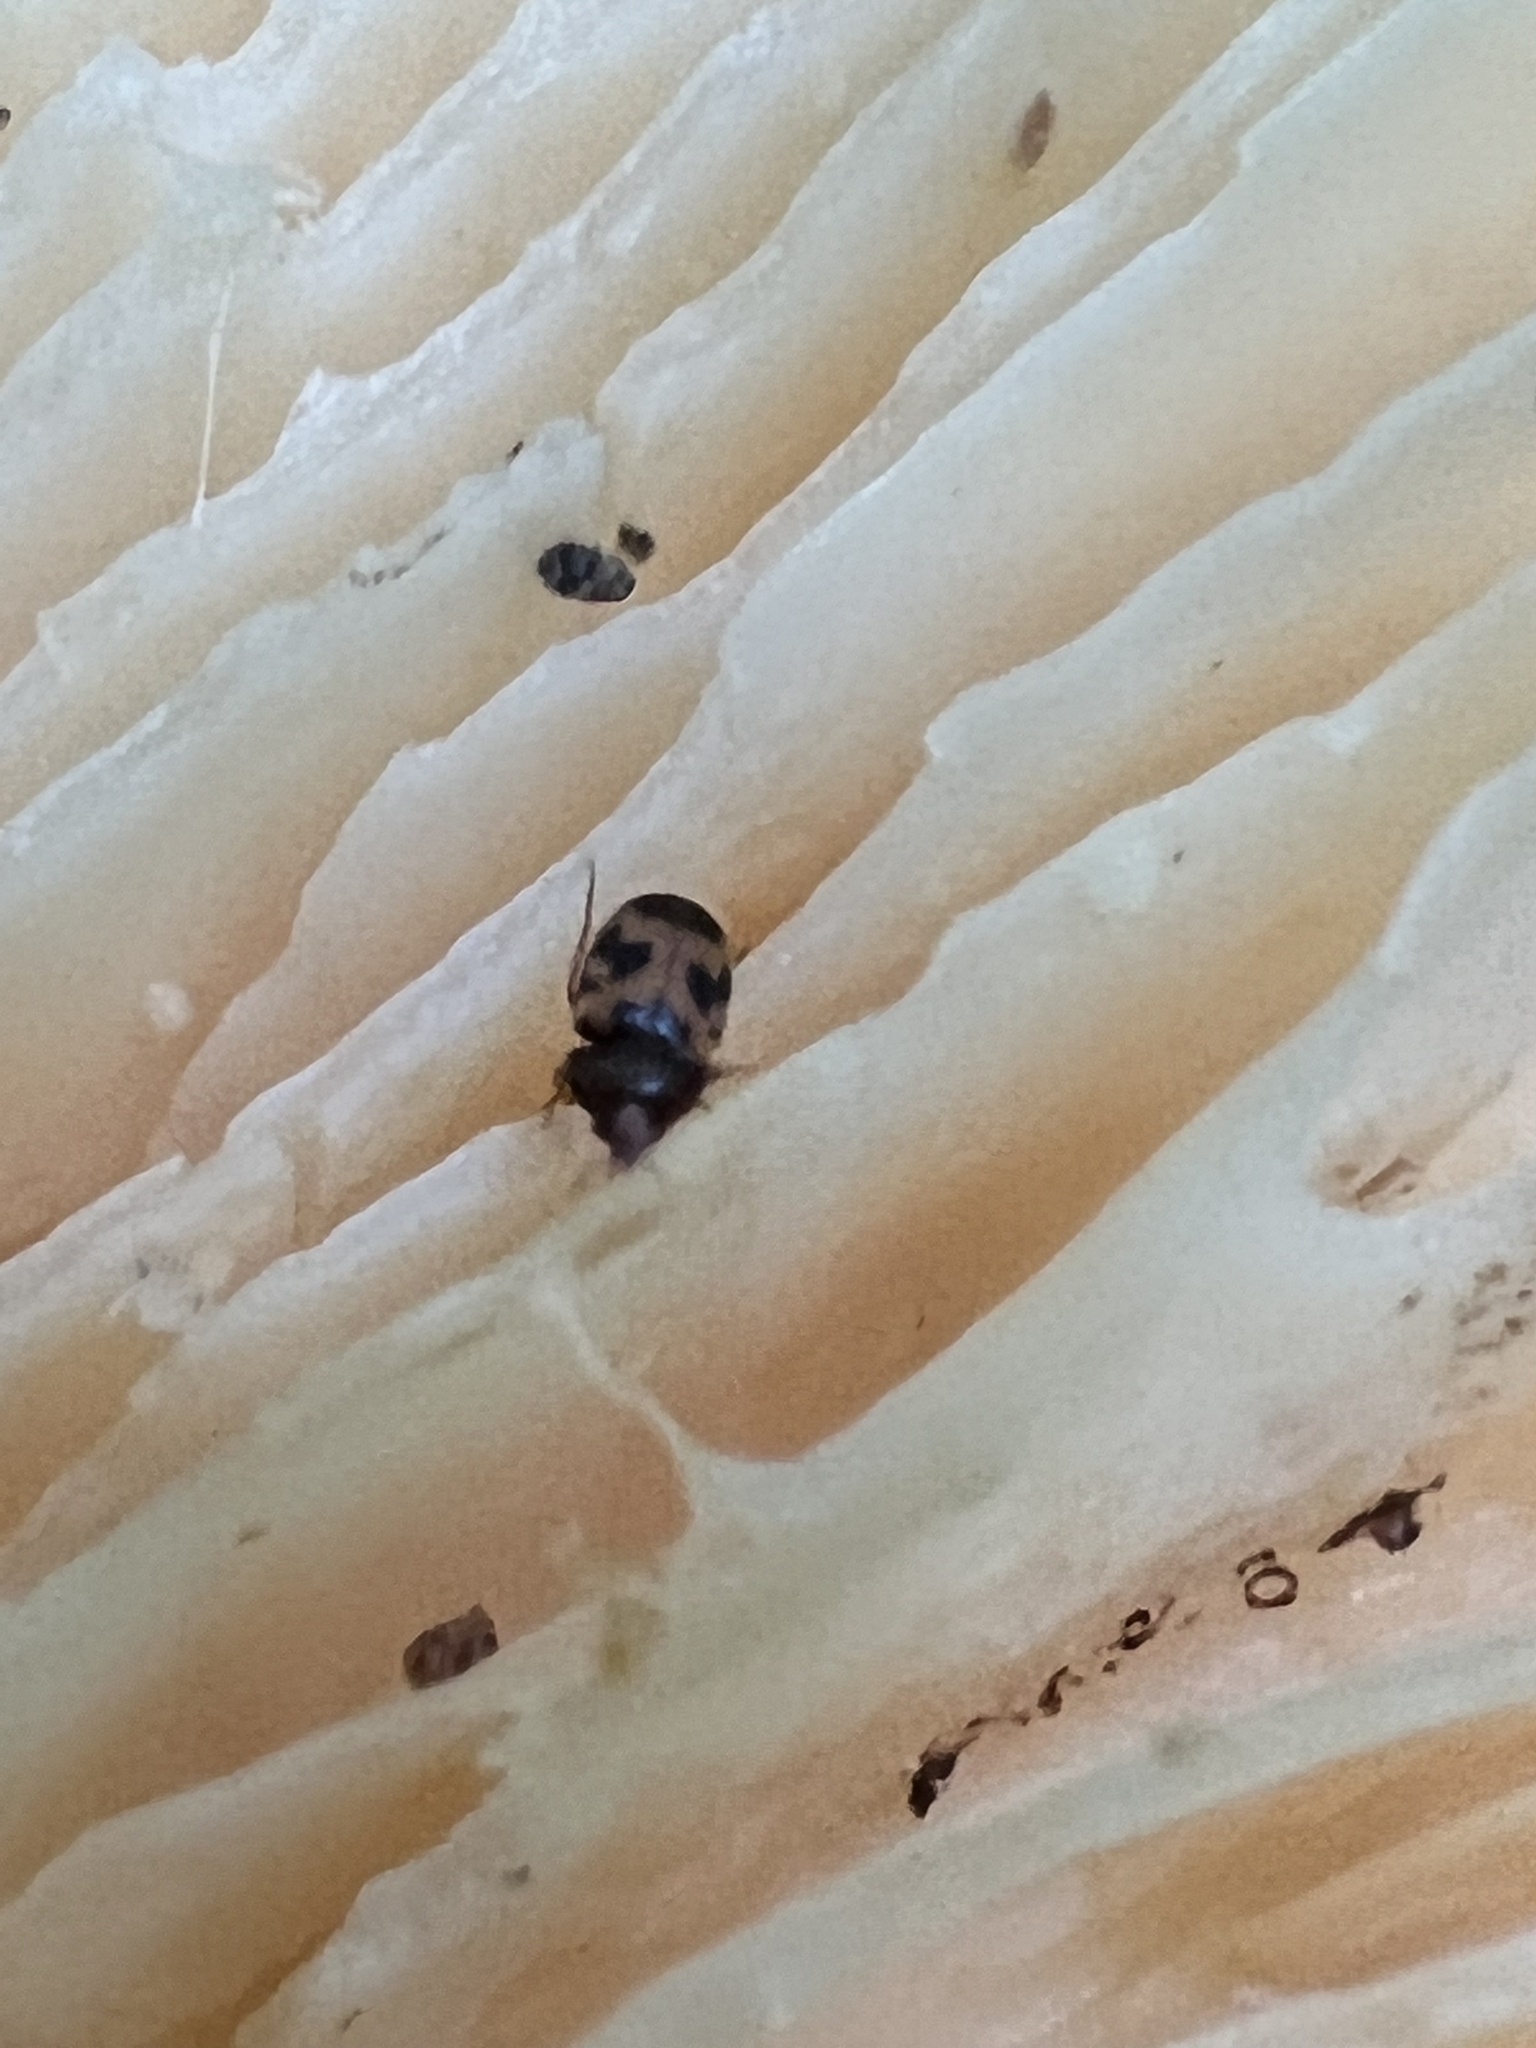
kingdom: Animalia
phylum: Arthropoda
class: Insecta
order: Coleoptera
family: Mycetophagidae
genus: Mycetophagus
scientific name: Mycetophagus flexuosus
